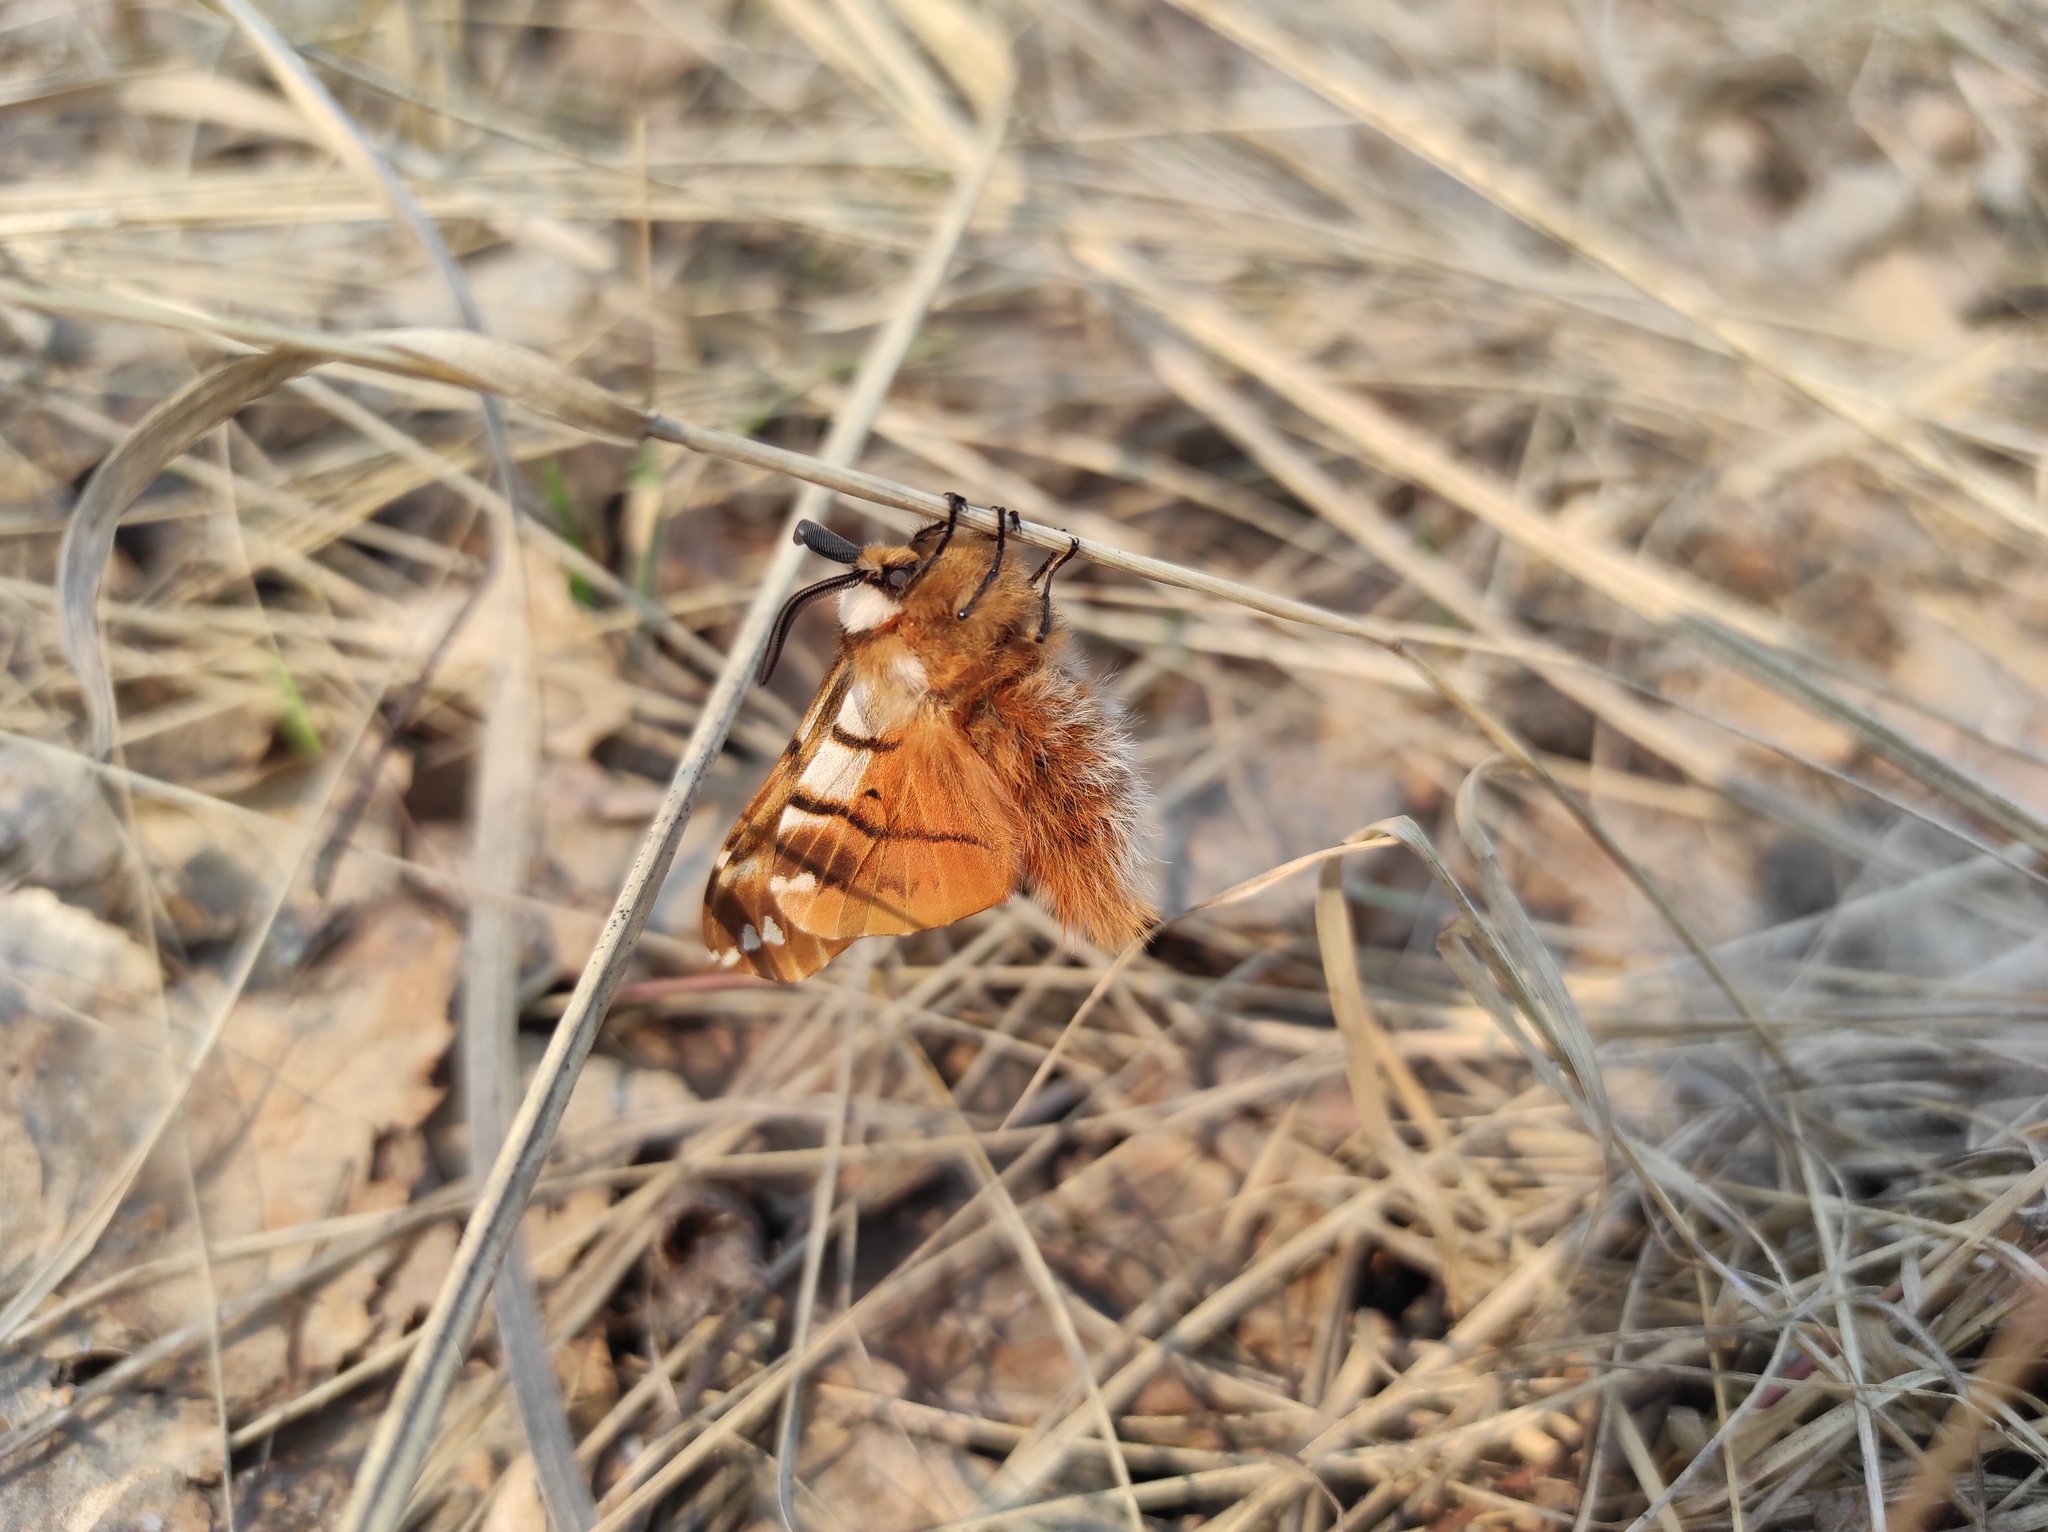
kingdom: Animalia
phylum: Arthropoda
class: Insecta
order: Lepidoptera
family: Endromidae
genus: Endromis
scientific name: Endromis versicolora
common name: Kentish glory
